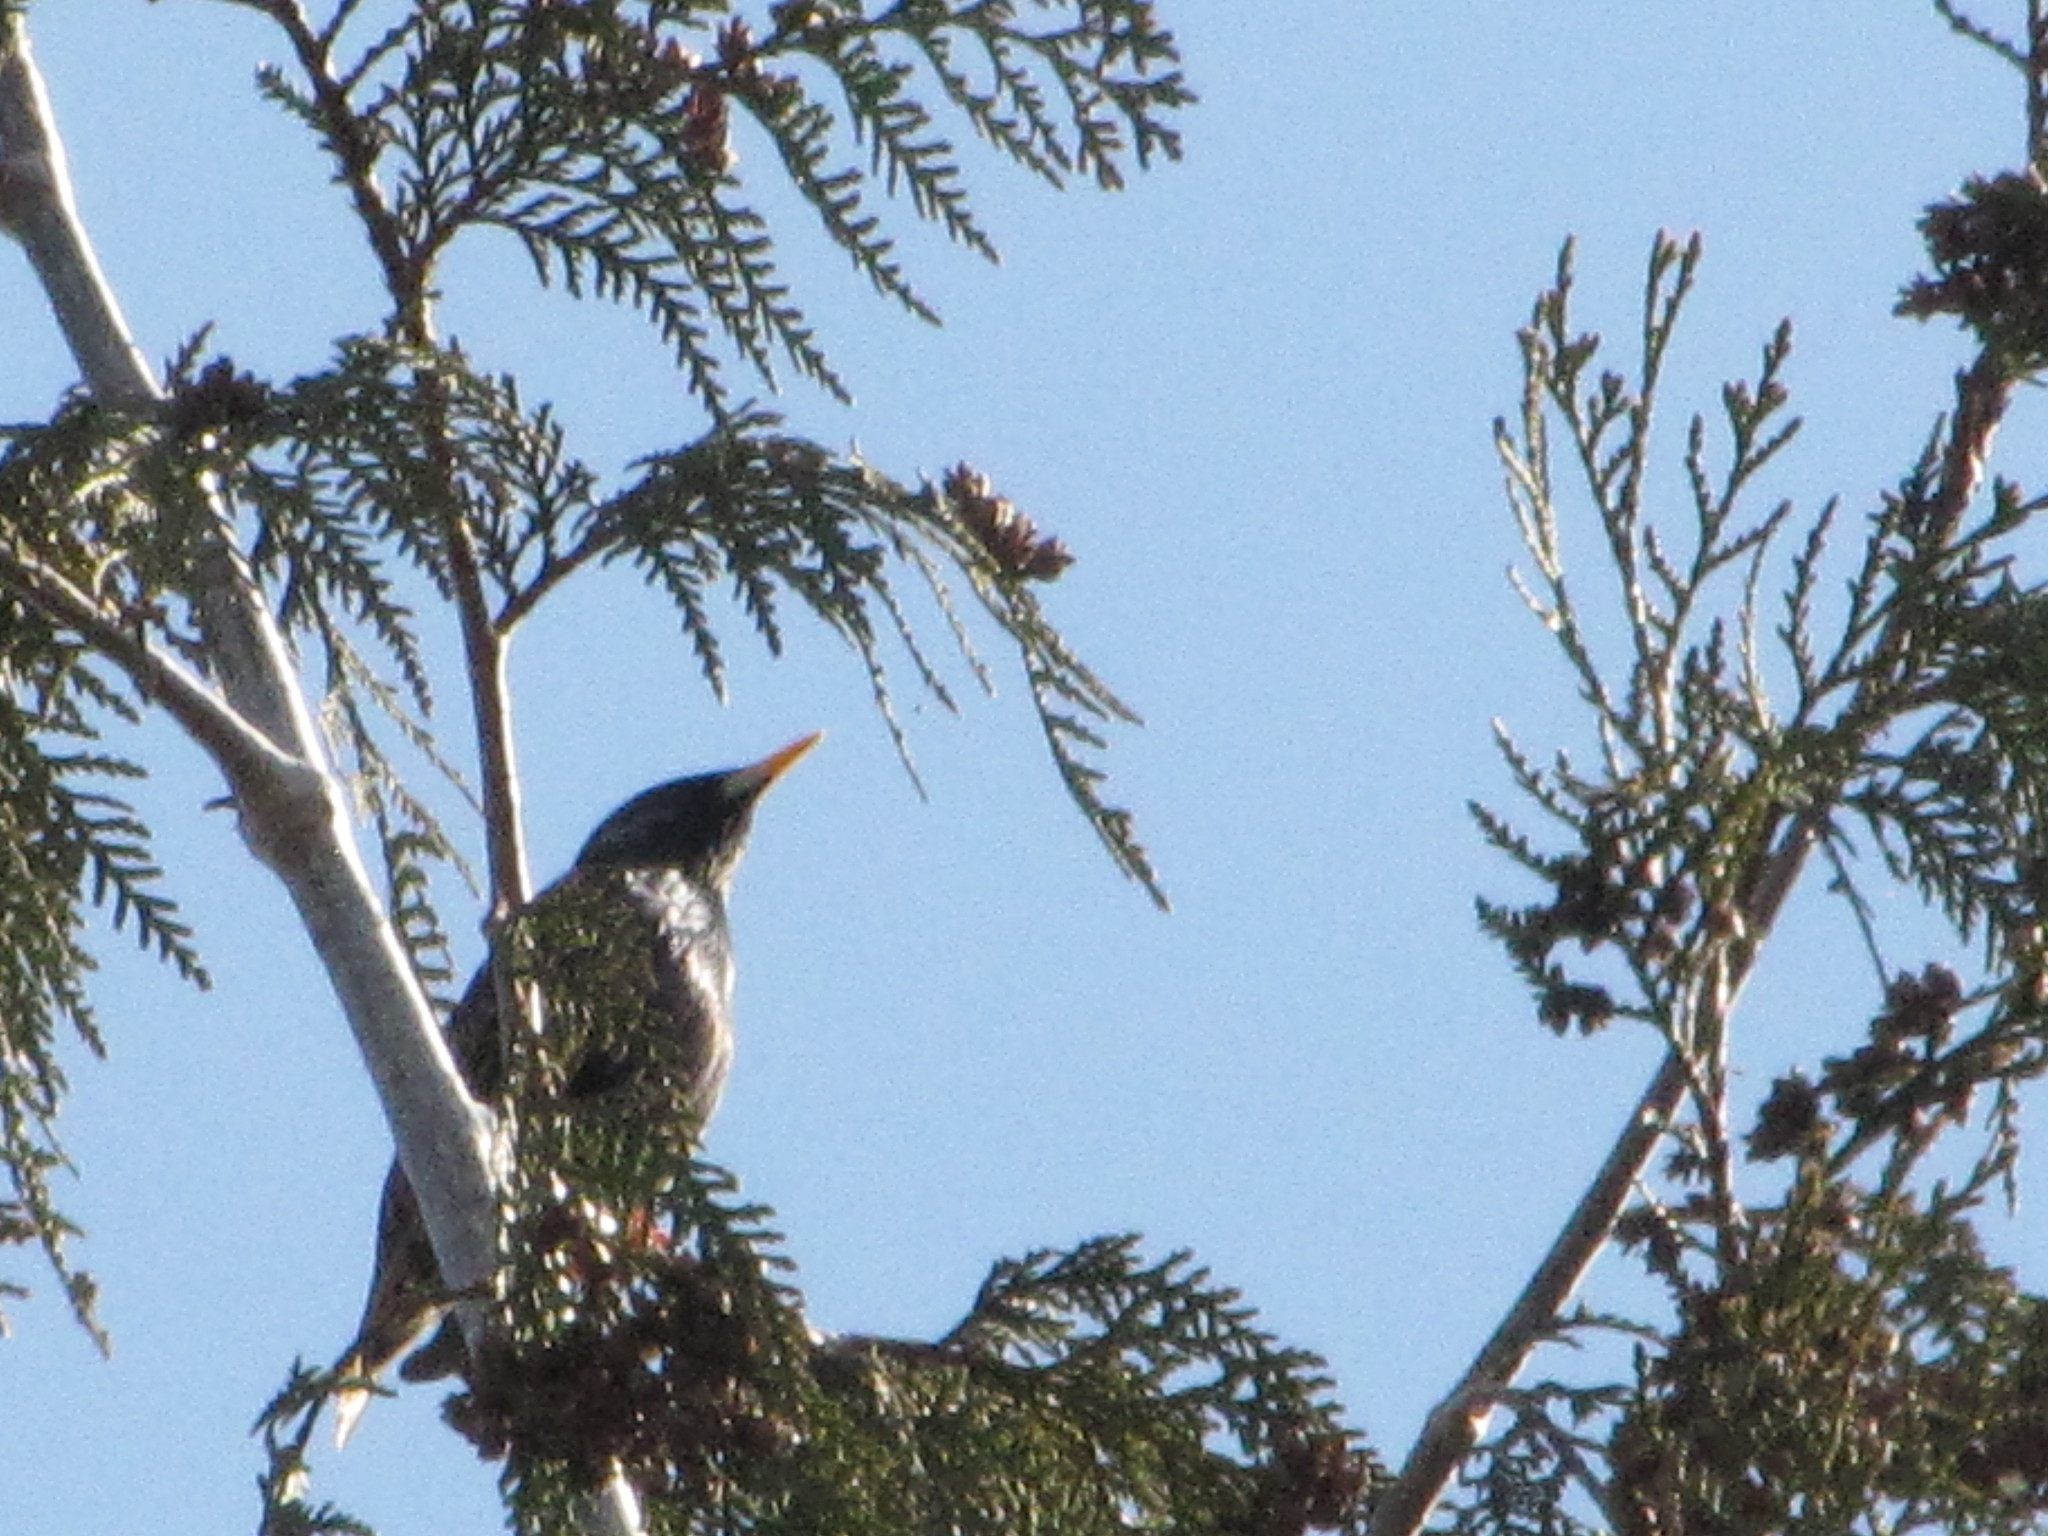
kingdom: Animalia
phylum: Chordata
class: Aves
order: Passeriformes
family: Sturnidae
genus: Sturnus
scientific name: Sturnus vulgaris
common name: Common starling
